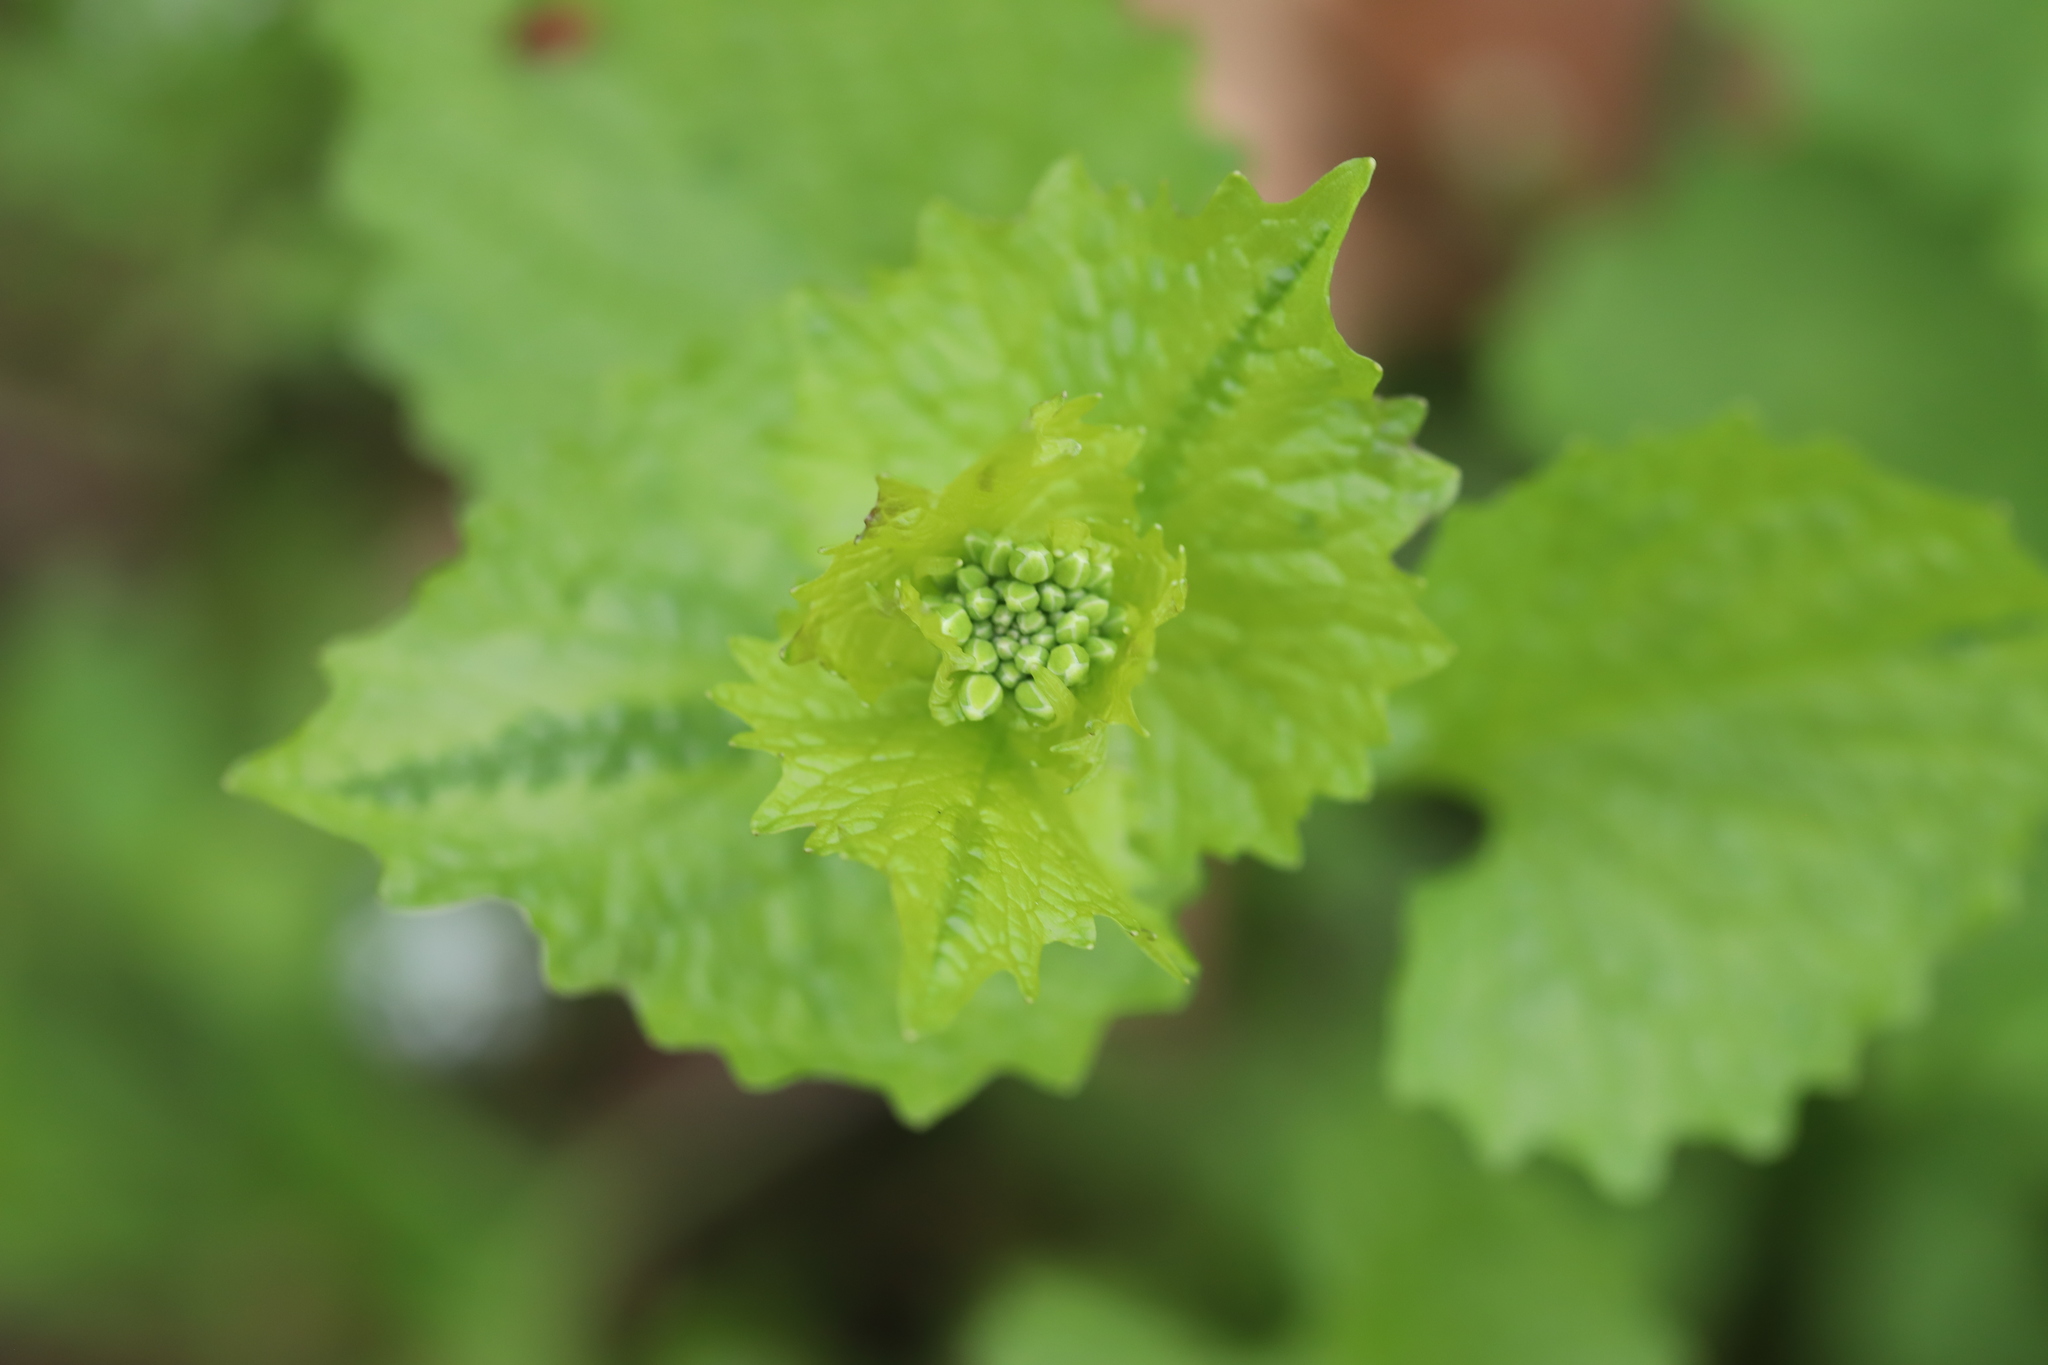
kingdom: Plantae
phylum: Tracheophyta
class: Magnoliopsida
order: Brassicales
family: Brassicaceae
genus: Alliaria
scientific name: Alliaria petiolata
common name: Garlic mustard
